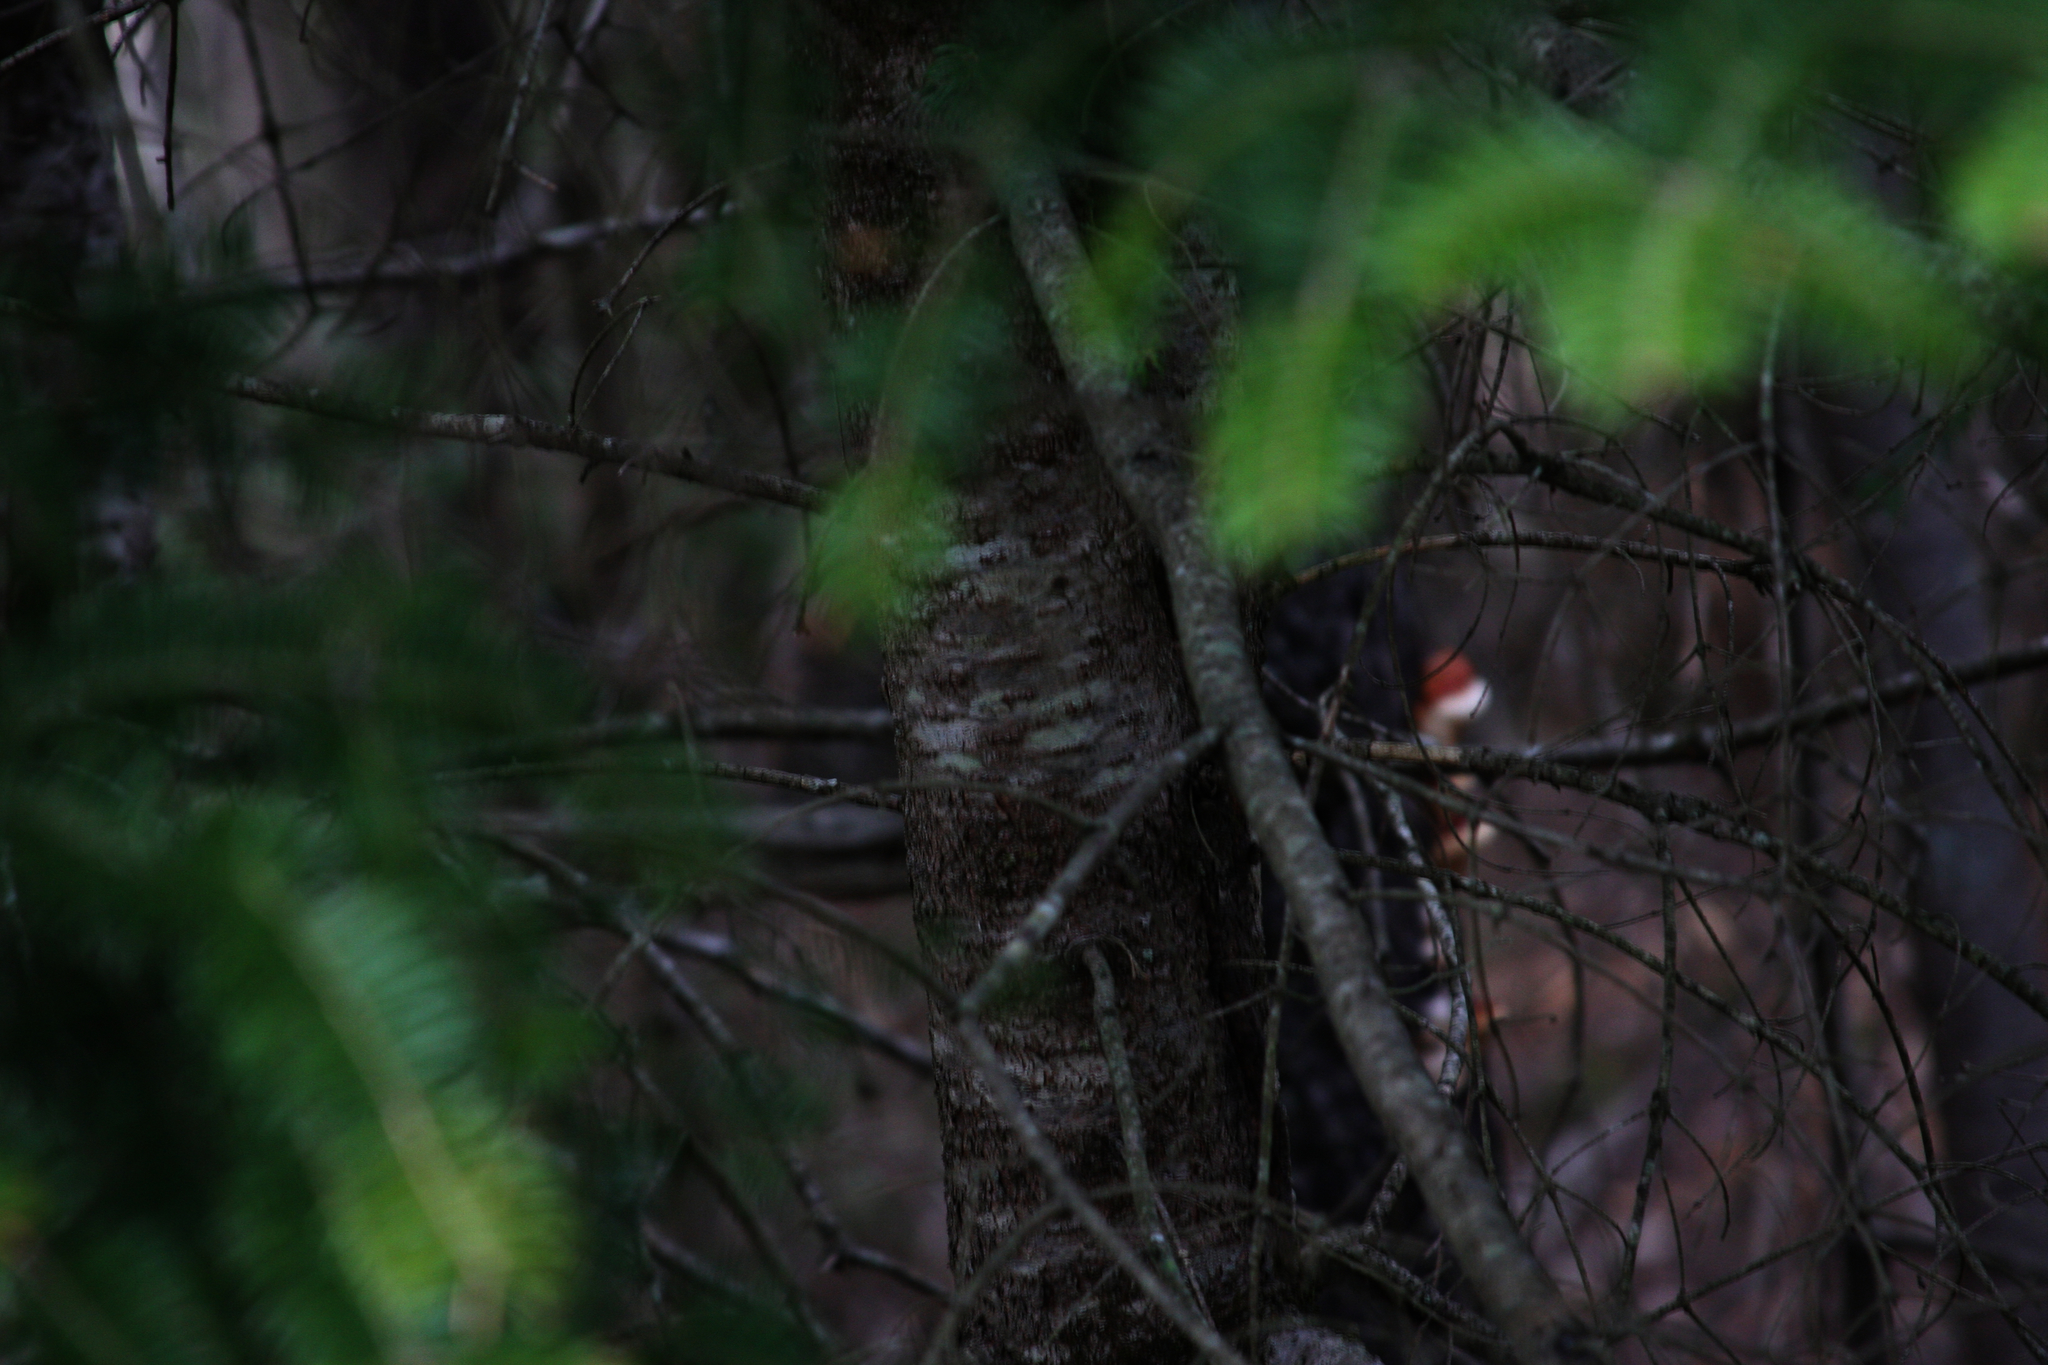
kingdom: Plantae
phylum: Tracheophyta
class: Pinopsida
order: Pinales
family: Pinaceae
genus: Abies
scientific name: Abies balsamea
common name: Balsam fir
